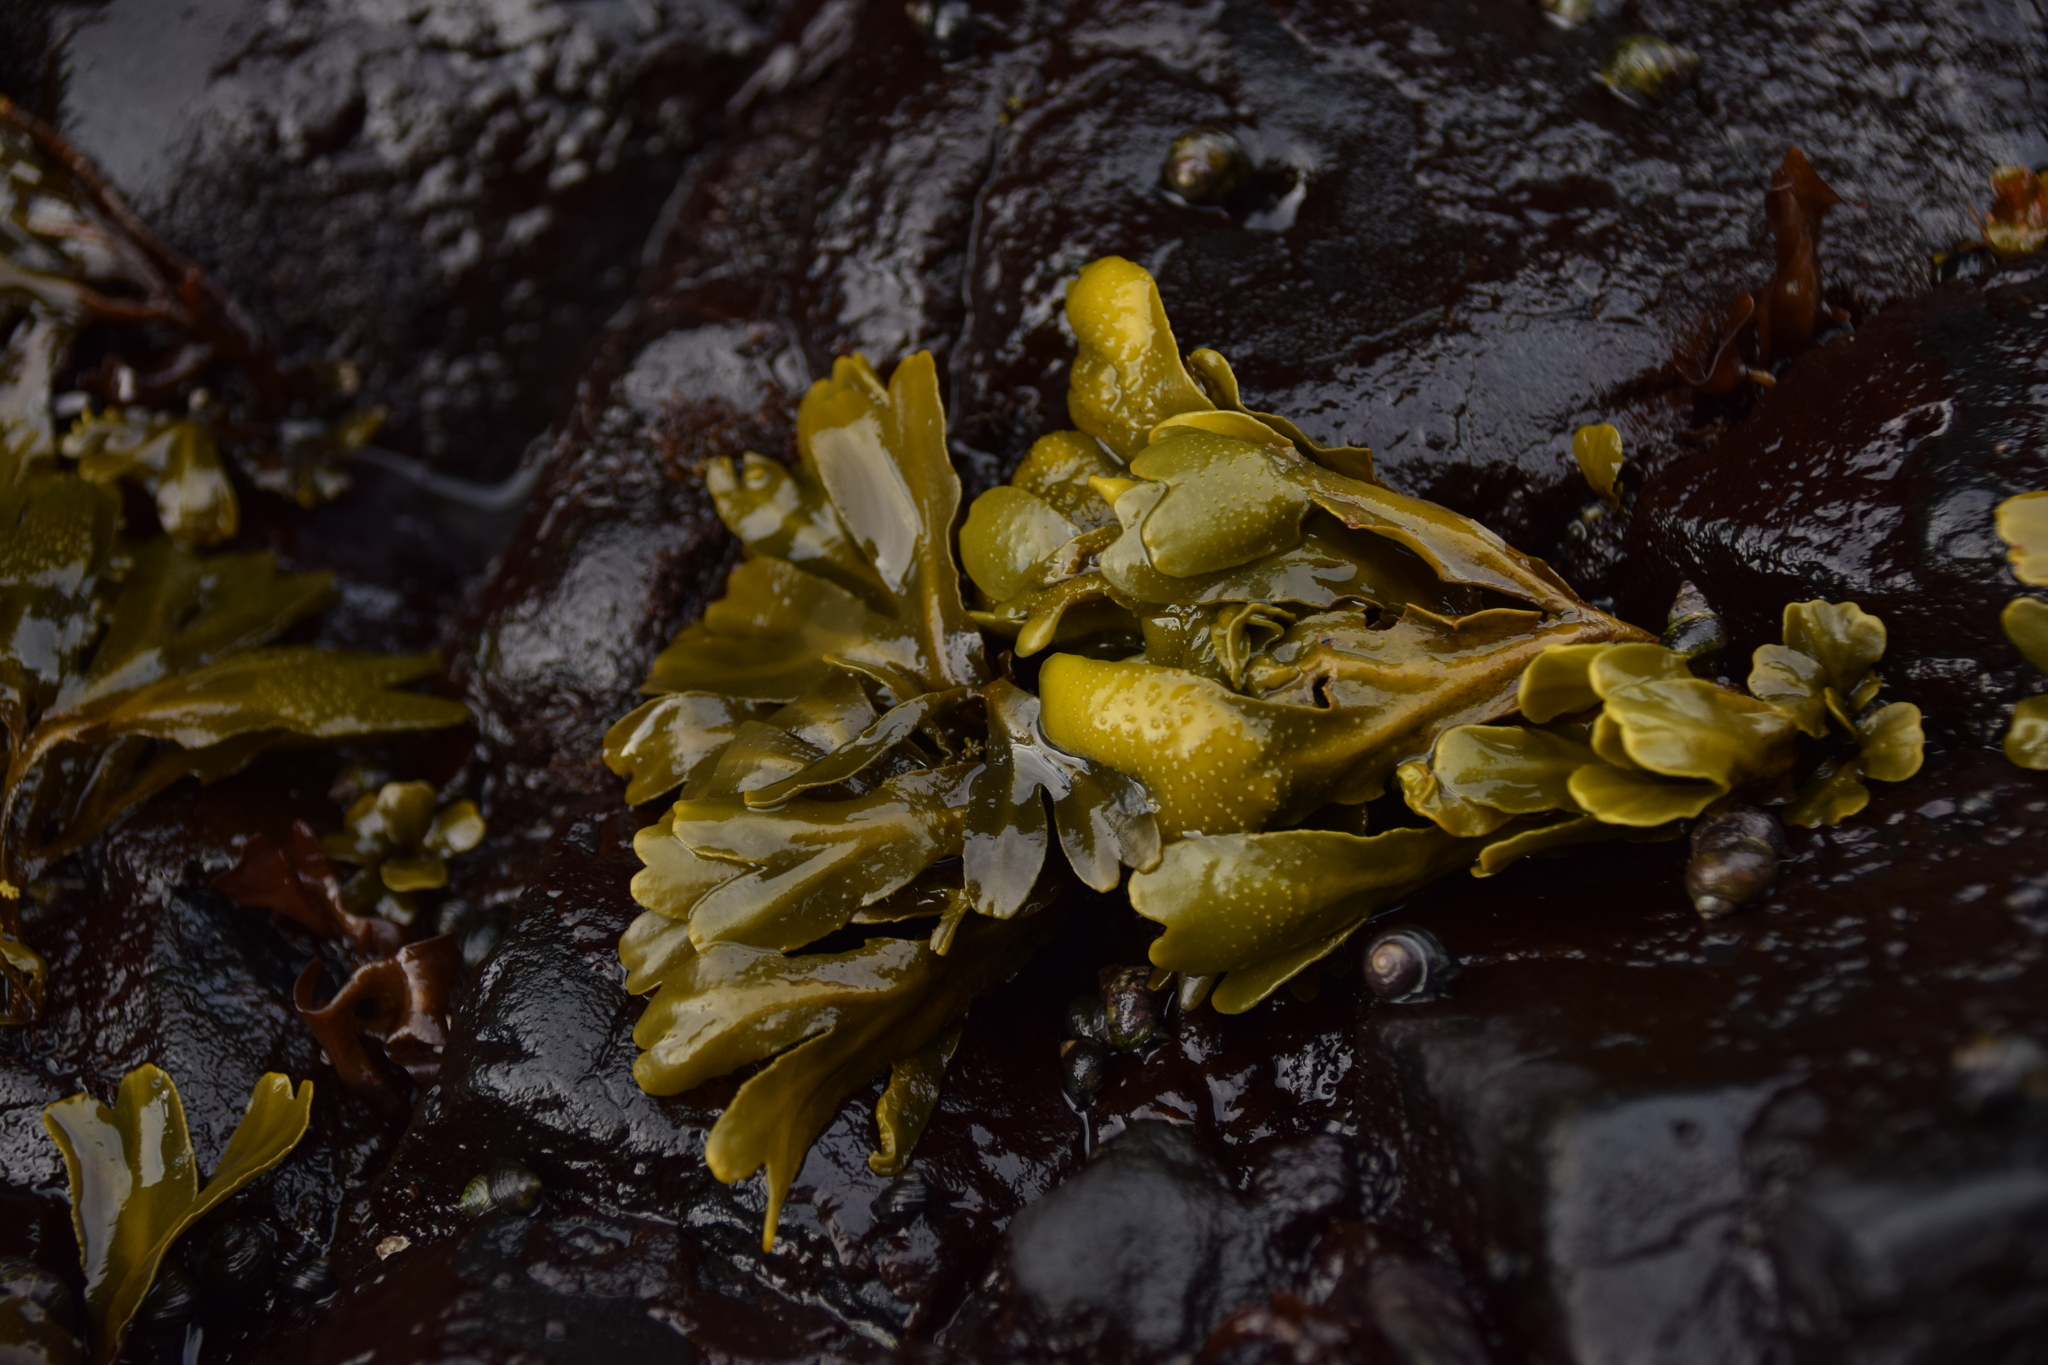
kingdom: Chromista
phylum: Ochrophyta
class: Phaeophyceae
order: Fucales
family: Fucaceae
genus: Fucus
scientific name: Fucus distichus
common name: Rockweed
